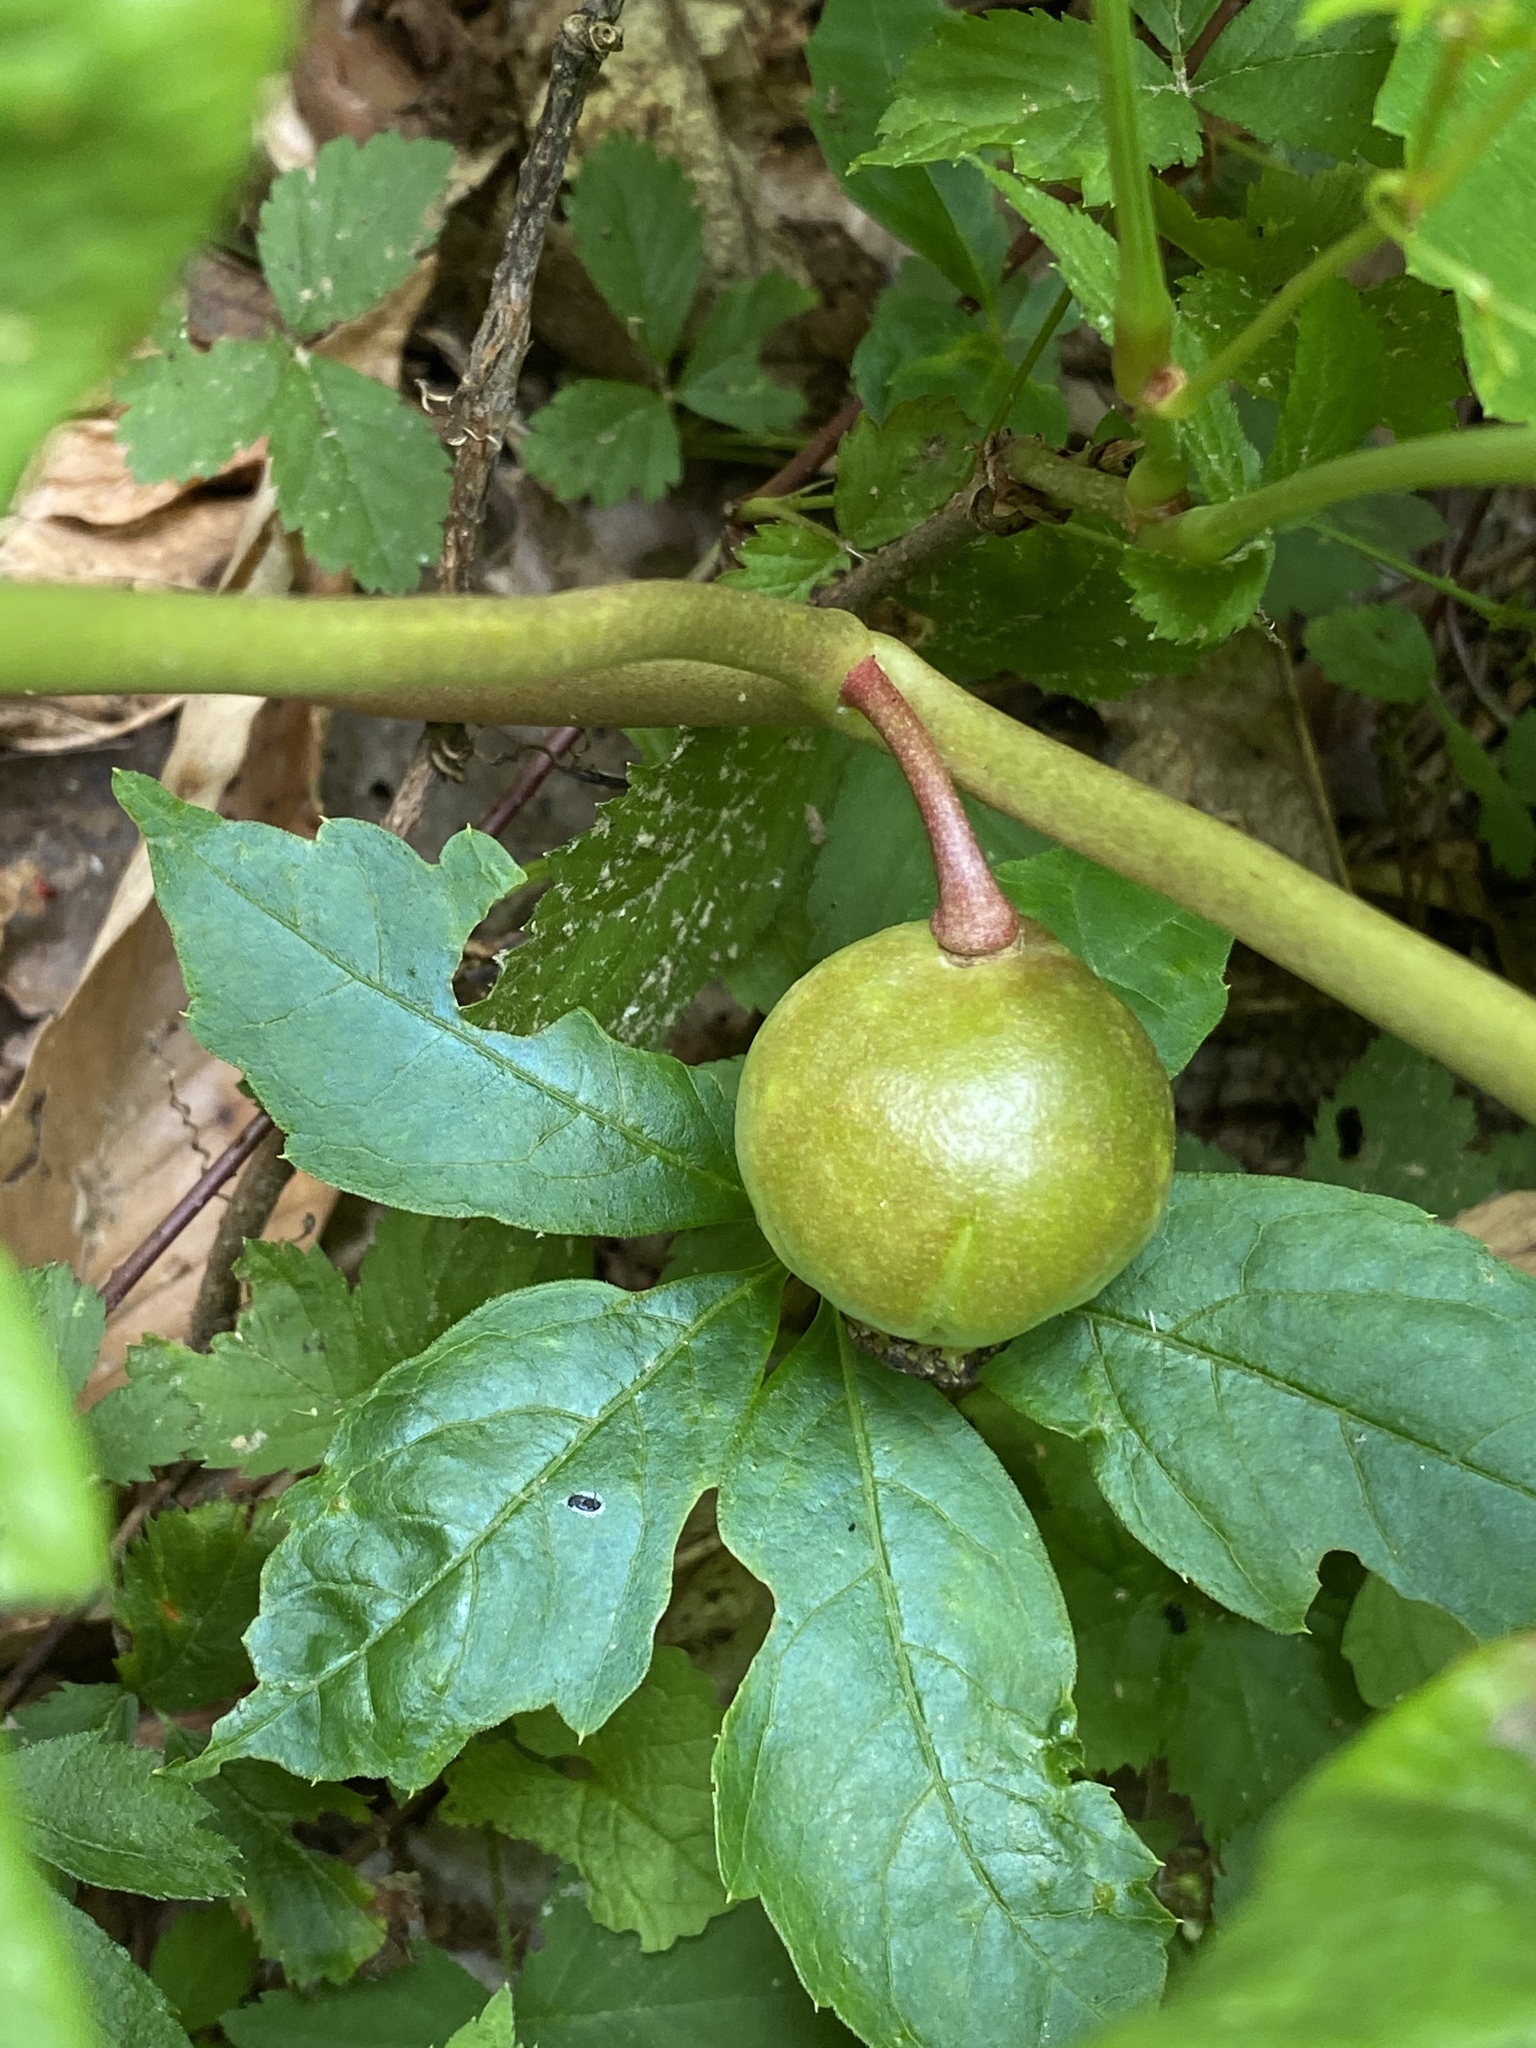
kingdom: Plantae
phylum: Tracheophyta
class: Magnoliopsida
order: Ranunculales
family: Berberidaceae
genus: Podophyllum
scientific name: Podophyllum peltatum
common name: Wild mandrake
